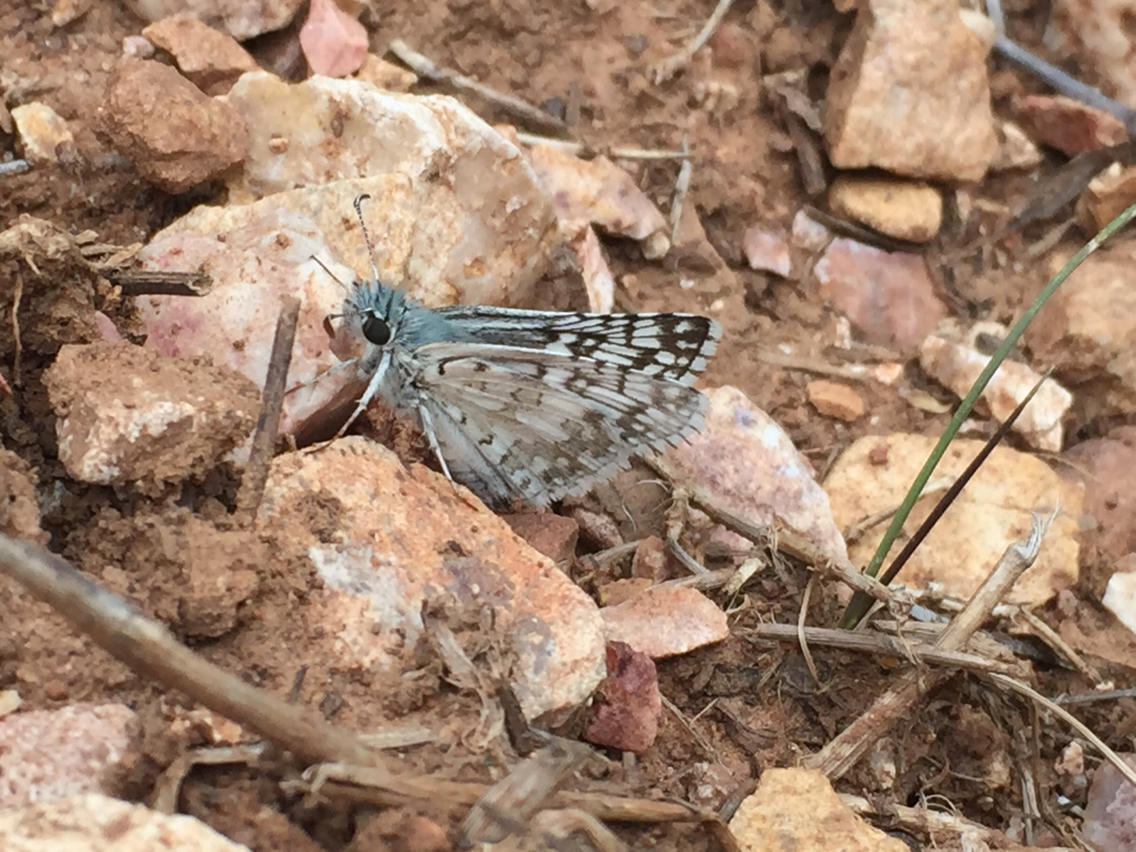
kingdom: Animalia
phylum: Arthropoda
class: Insecta
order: Lepidoptera
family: Hesperiidae
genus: Burnsius
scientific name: Burnsius
